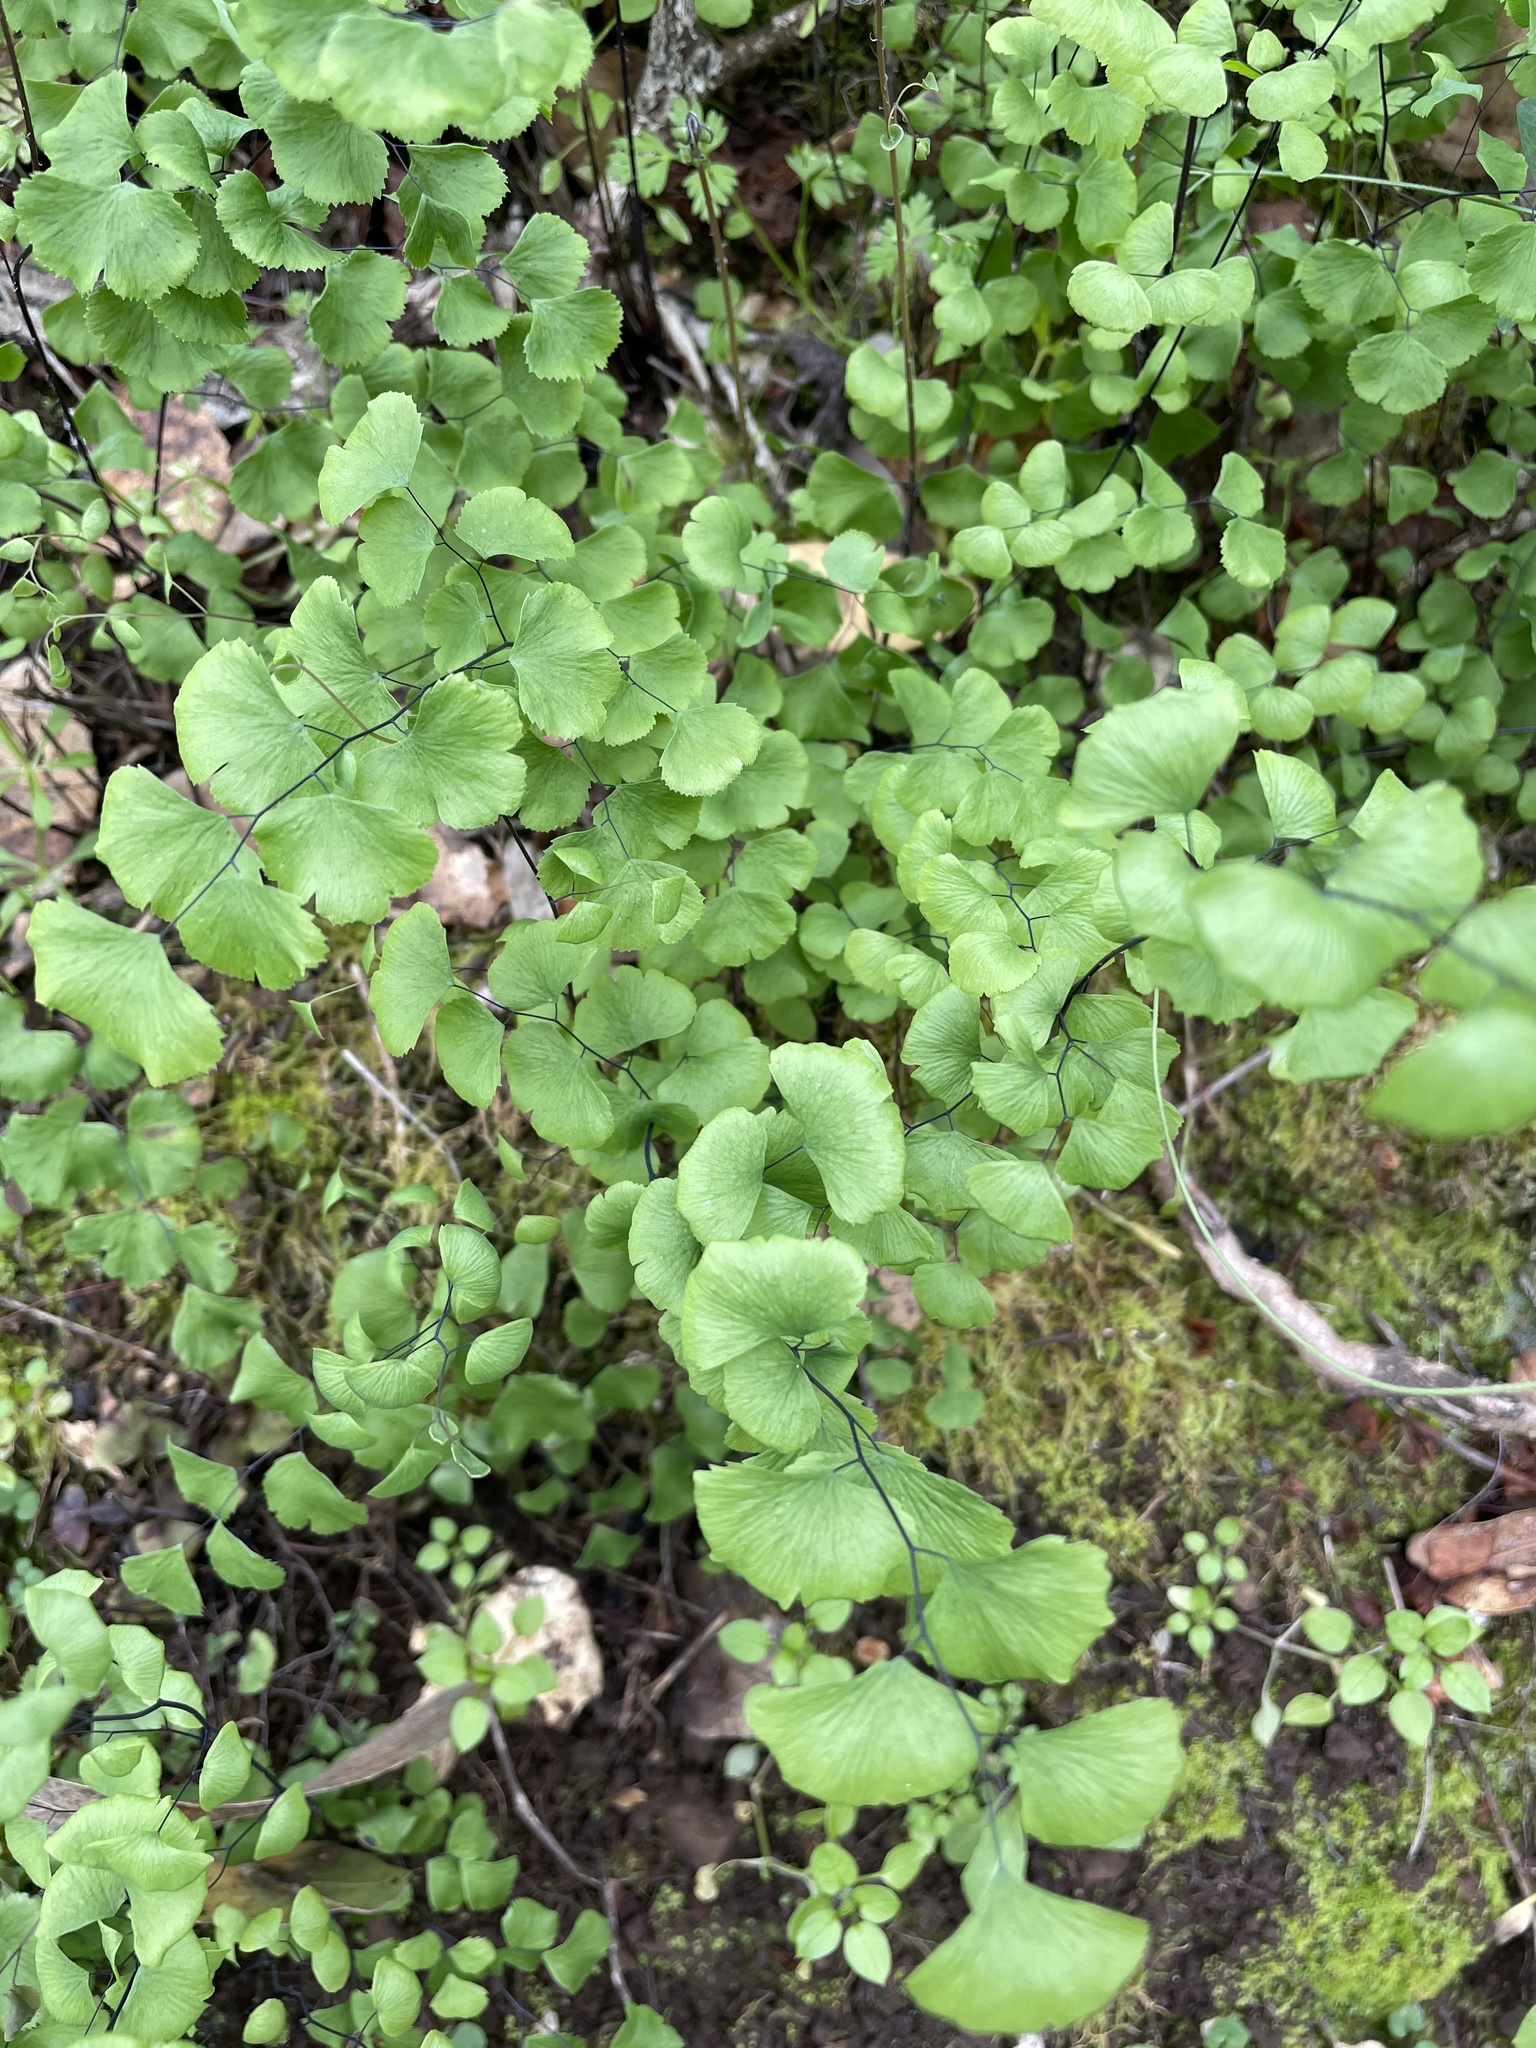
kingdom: Plantae
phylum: Tracheophyta
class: Polypodiopsida
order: Polypodiales
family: Pteridaceae
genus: Adiantum
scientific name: Adiantum jordanii
